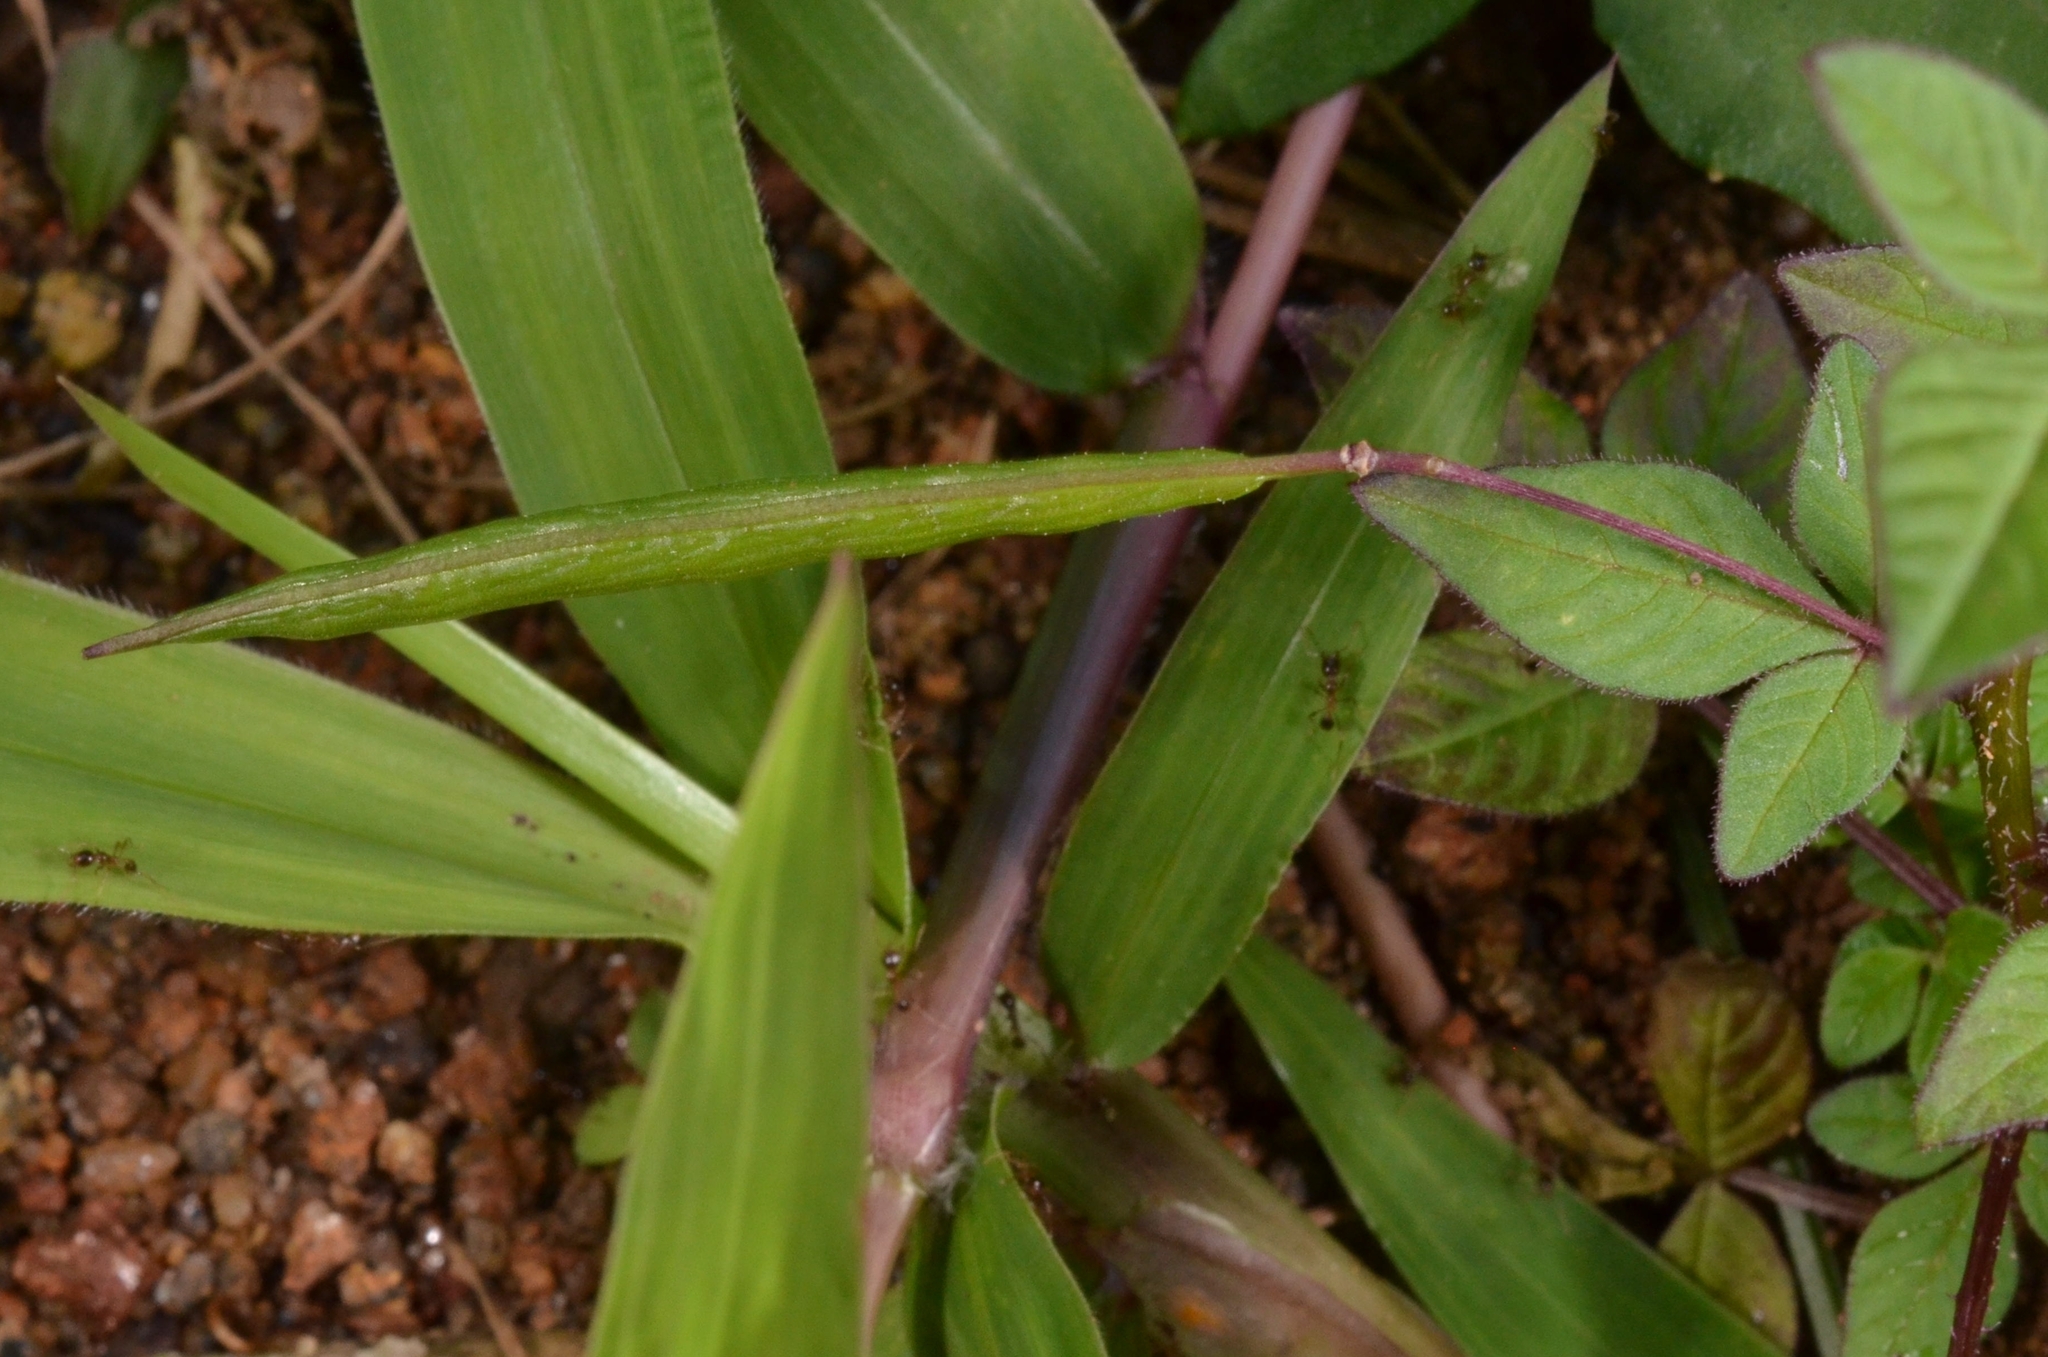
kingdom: Plantae
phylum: Tracheophyta
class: Magnoliopsida
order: Brassicales
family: Cleomaceae
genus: Sieruela
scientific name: Sieruela rutidosperma
